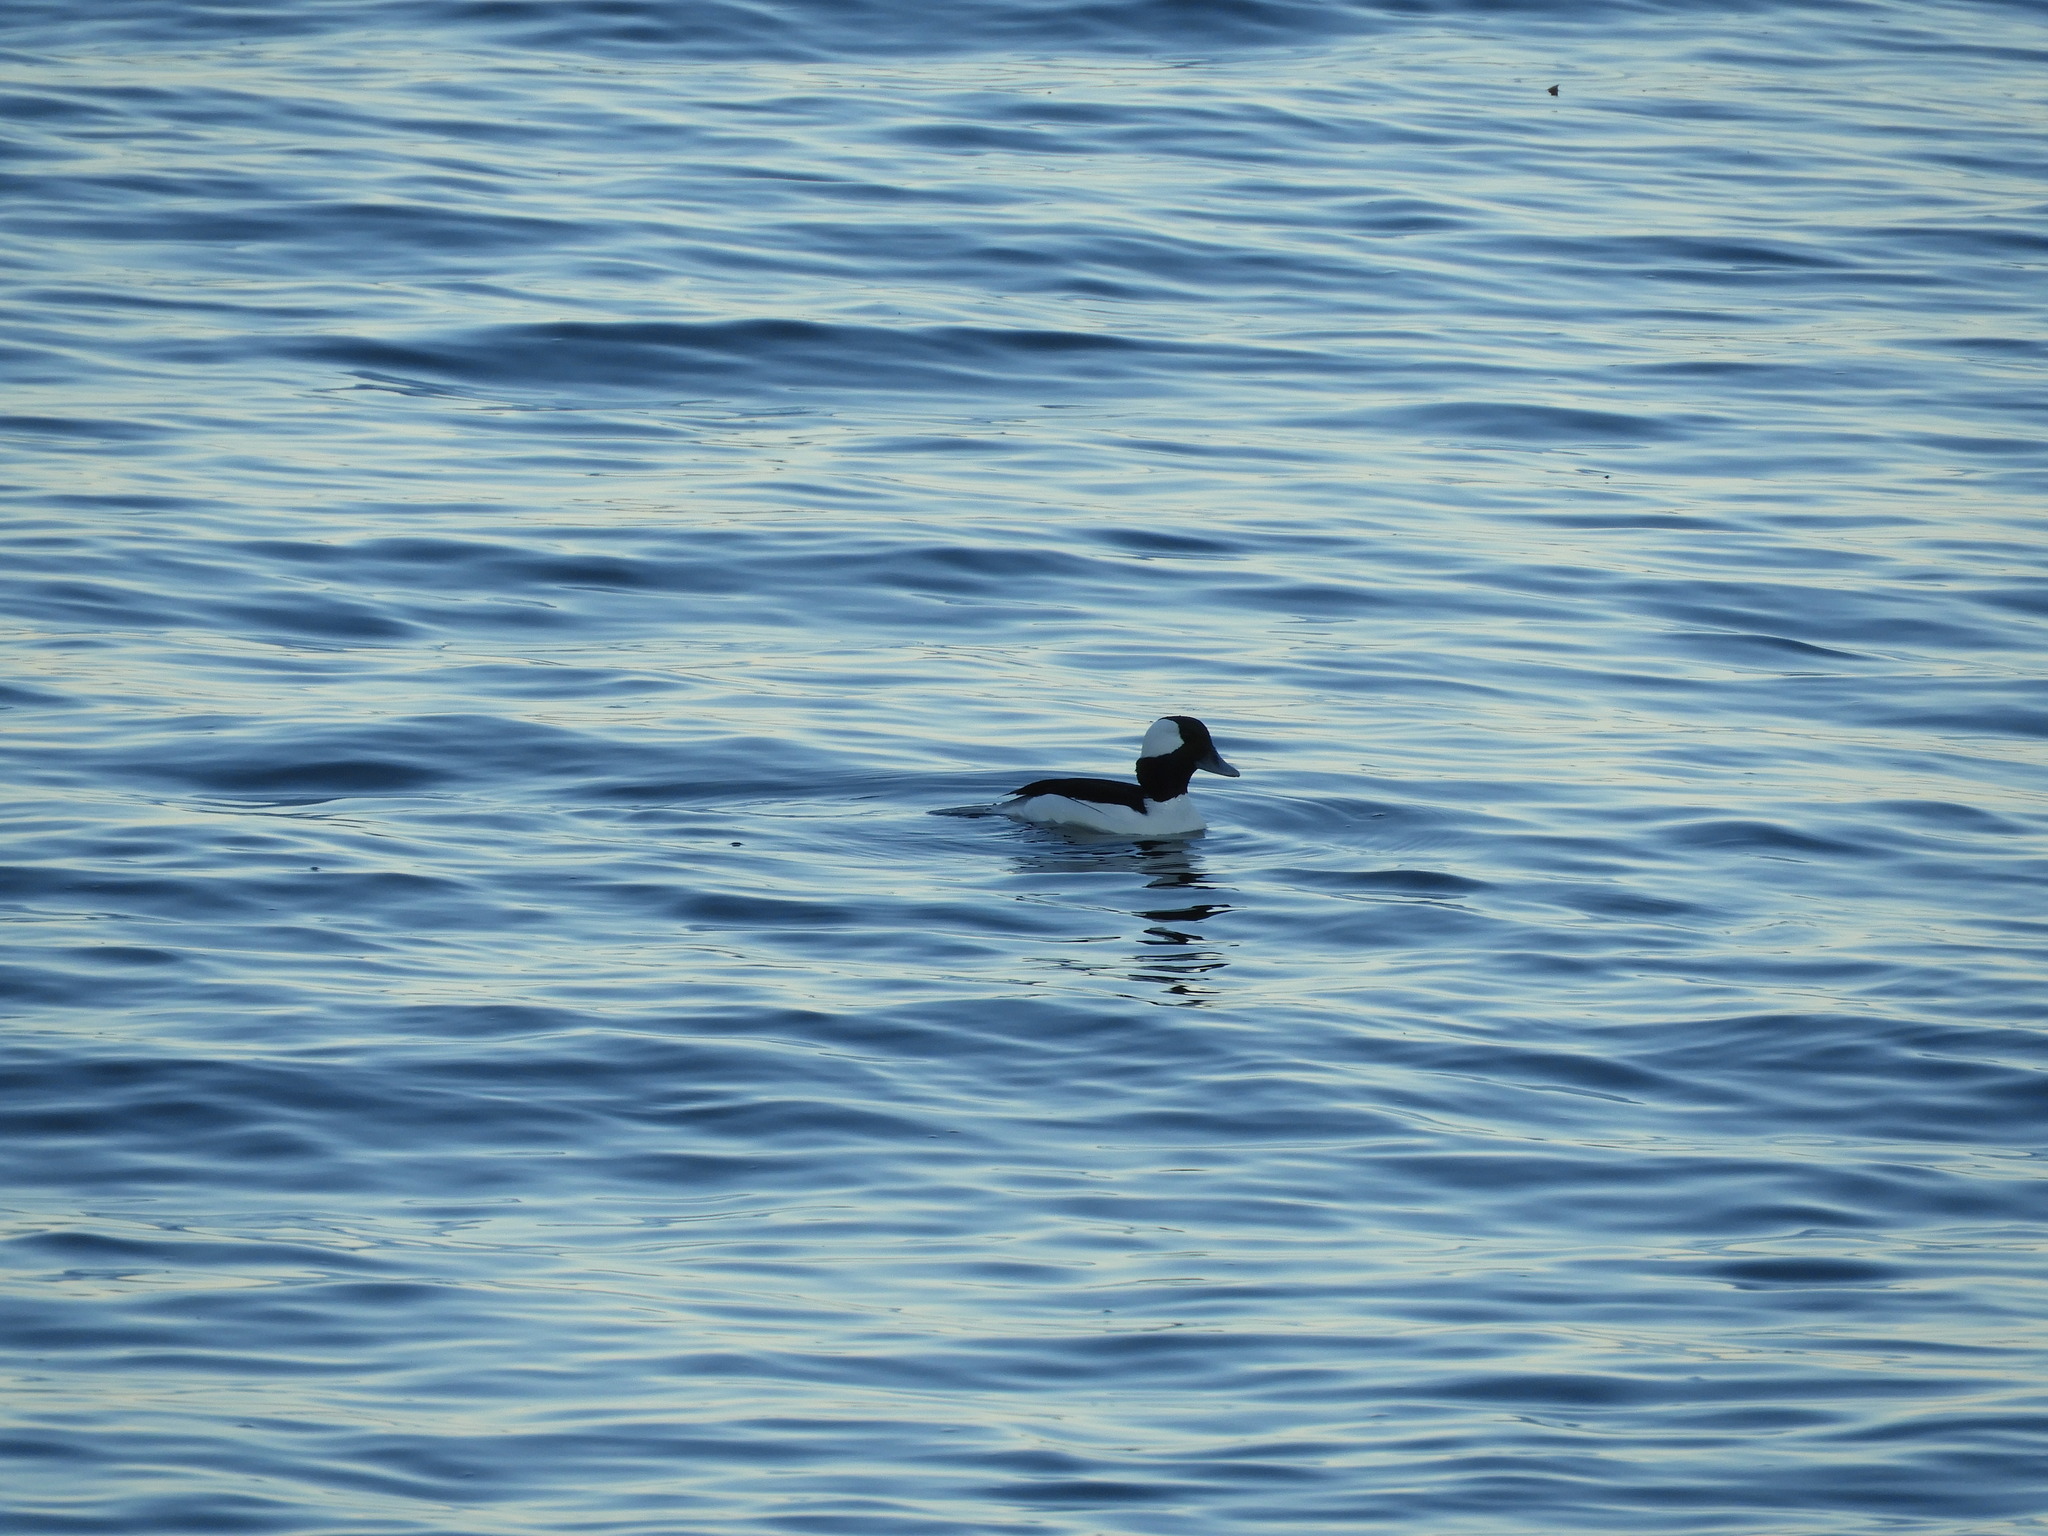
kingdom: Animalia
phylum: Chordata
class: Aves
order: Anseriformes
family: Anatidae
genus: Bucephala
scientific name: Bucephala albeola
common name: Bufflehead
